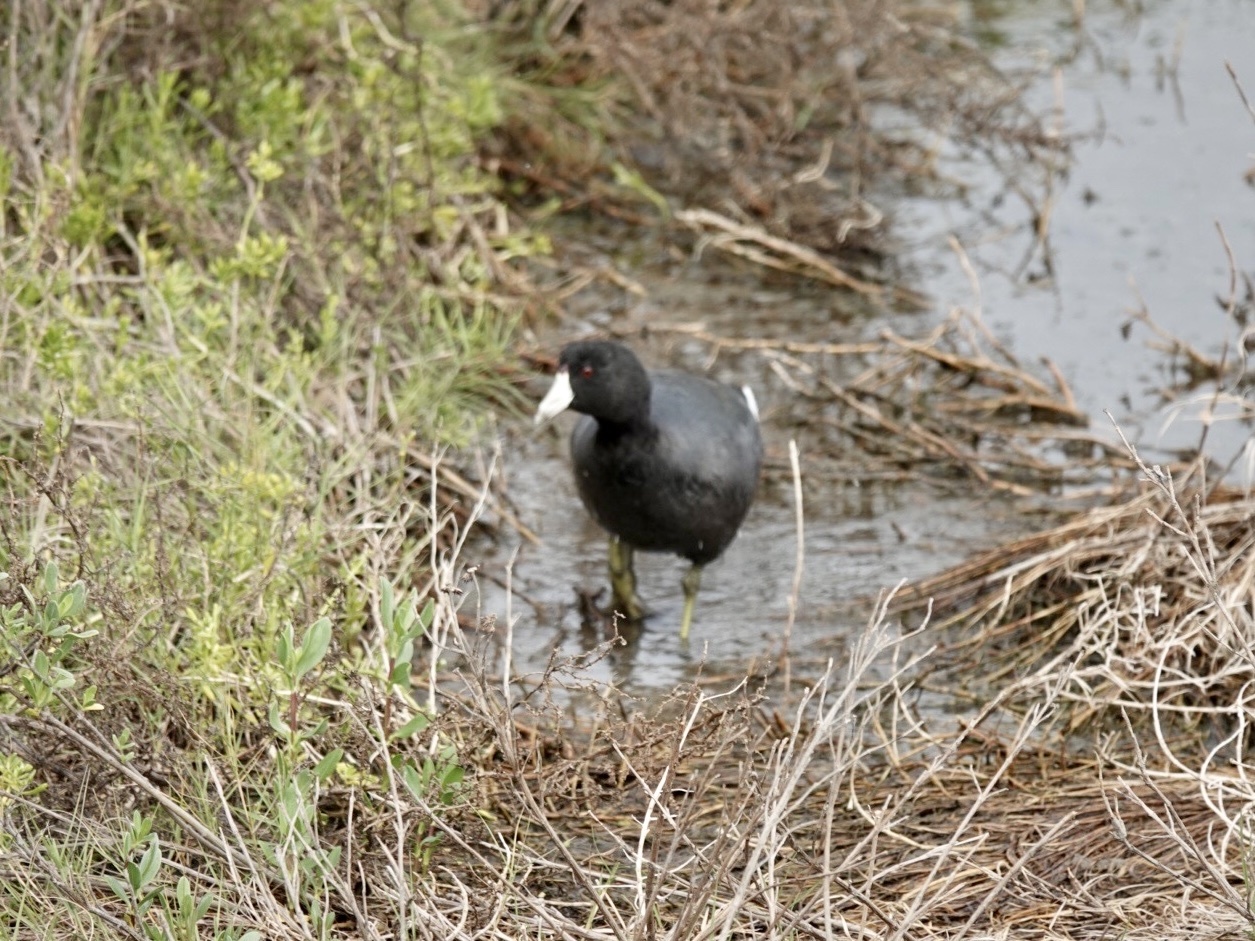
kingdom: Animalia
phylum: Chordata
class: Aves
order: Gruiformes
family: Rallidae
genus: Fulica
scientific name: Fulica americana
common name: American coot
